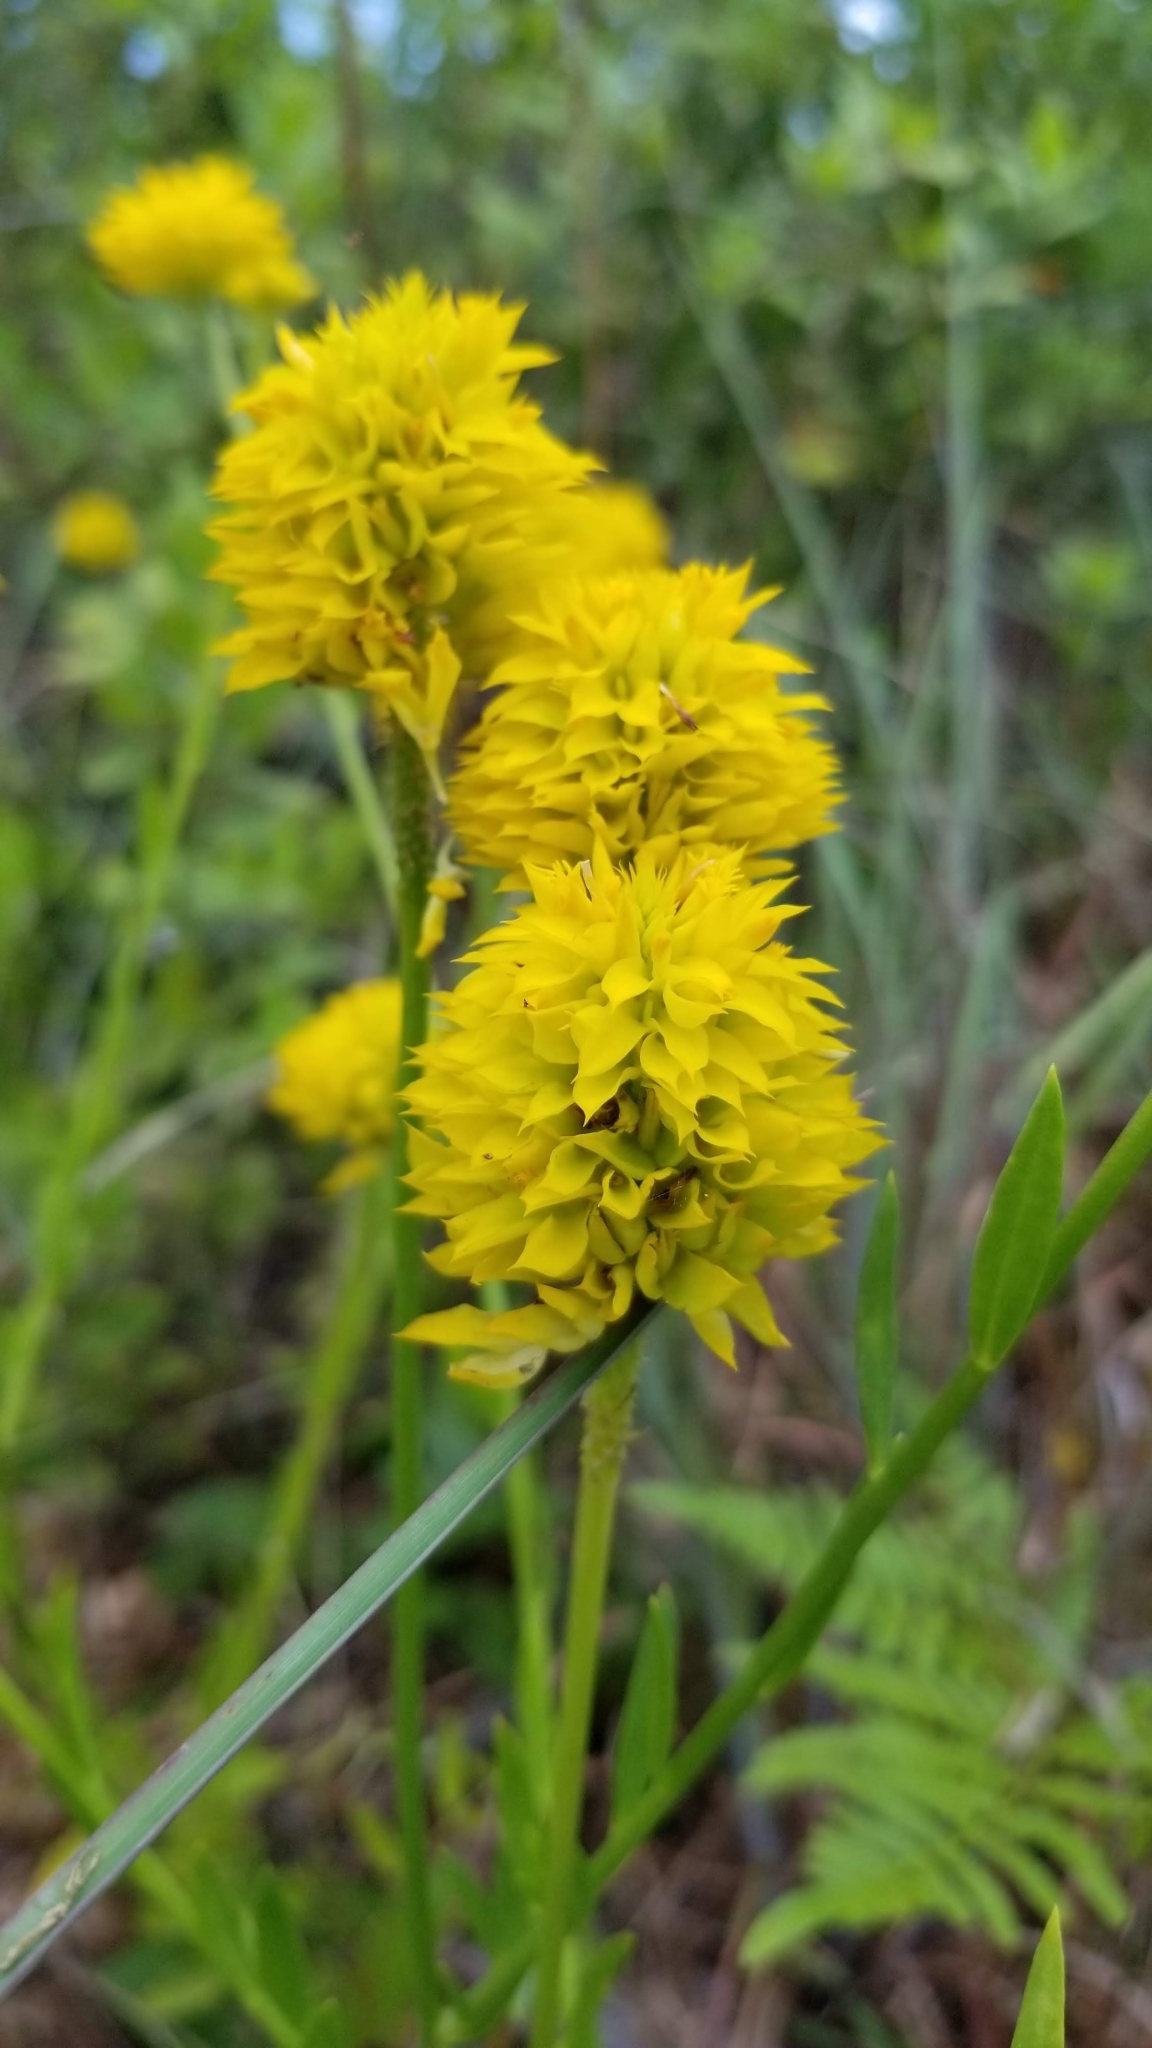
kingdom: Plantae
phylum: Tracheophyta
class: Magnoliopsida
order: Fabales
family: Polygalaceae
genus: Polygala
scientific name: Polygala rugelii
